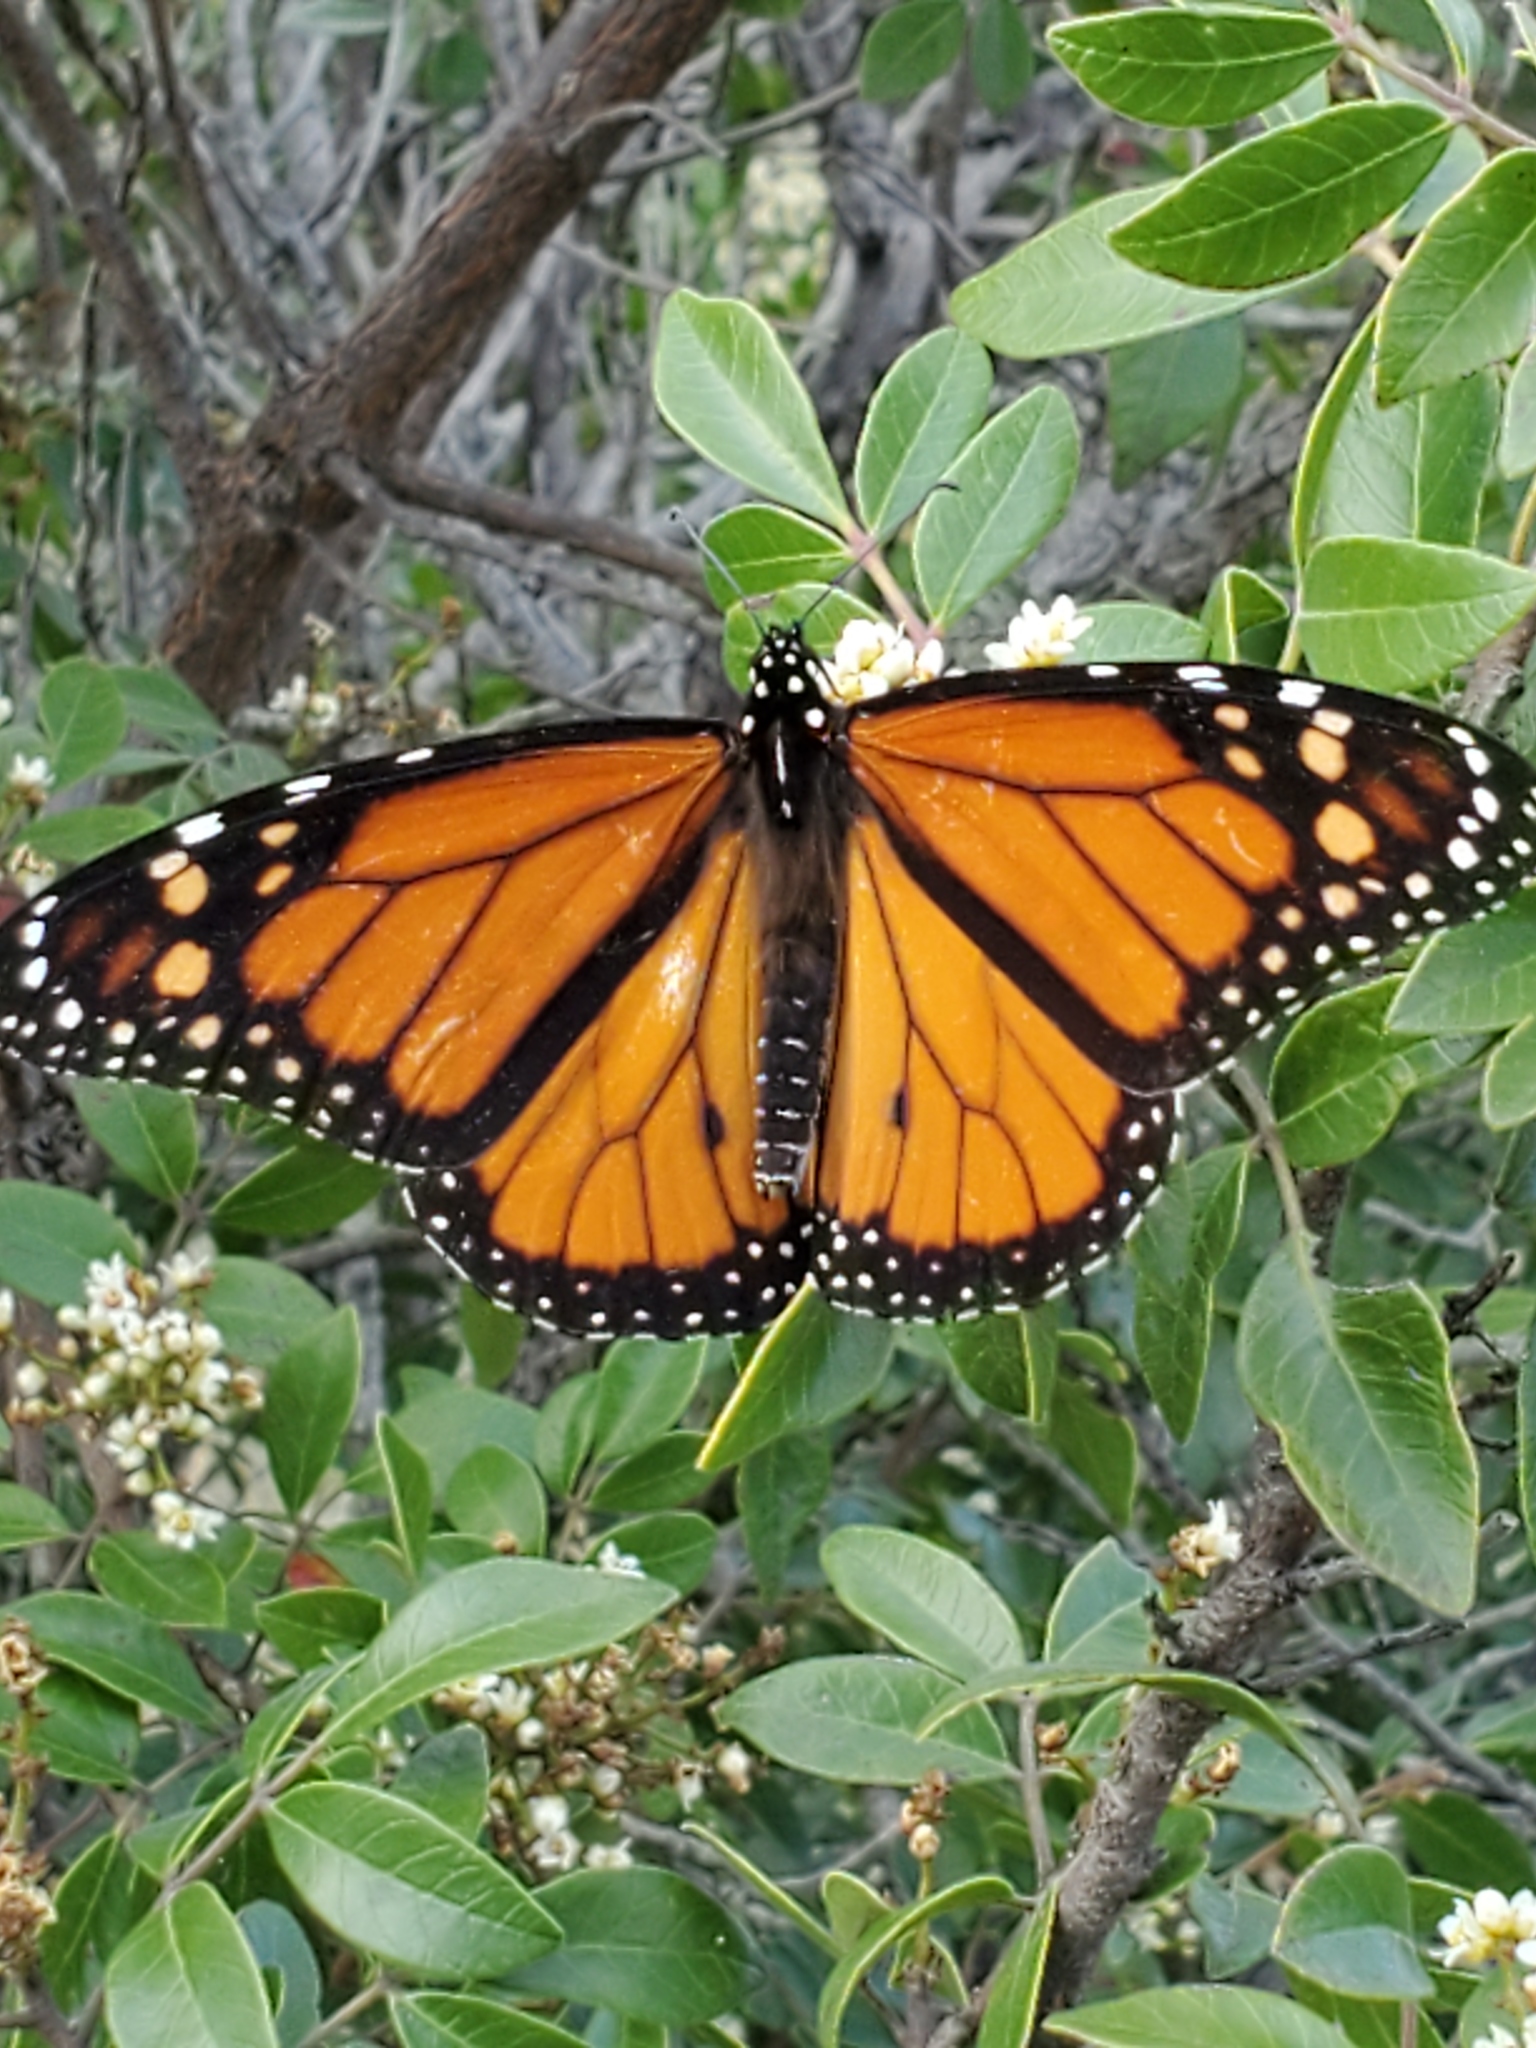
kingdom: Animalia
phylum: Arthropoda
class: Insecta
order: Lepidoptera
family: Nymphalidae
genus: Danaus
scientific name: Danaus plexippus
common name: Monarch
